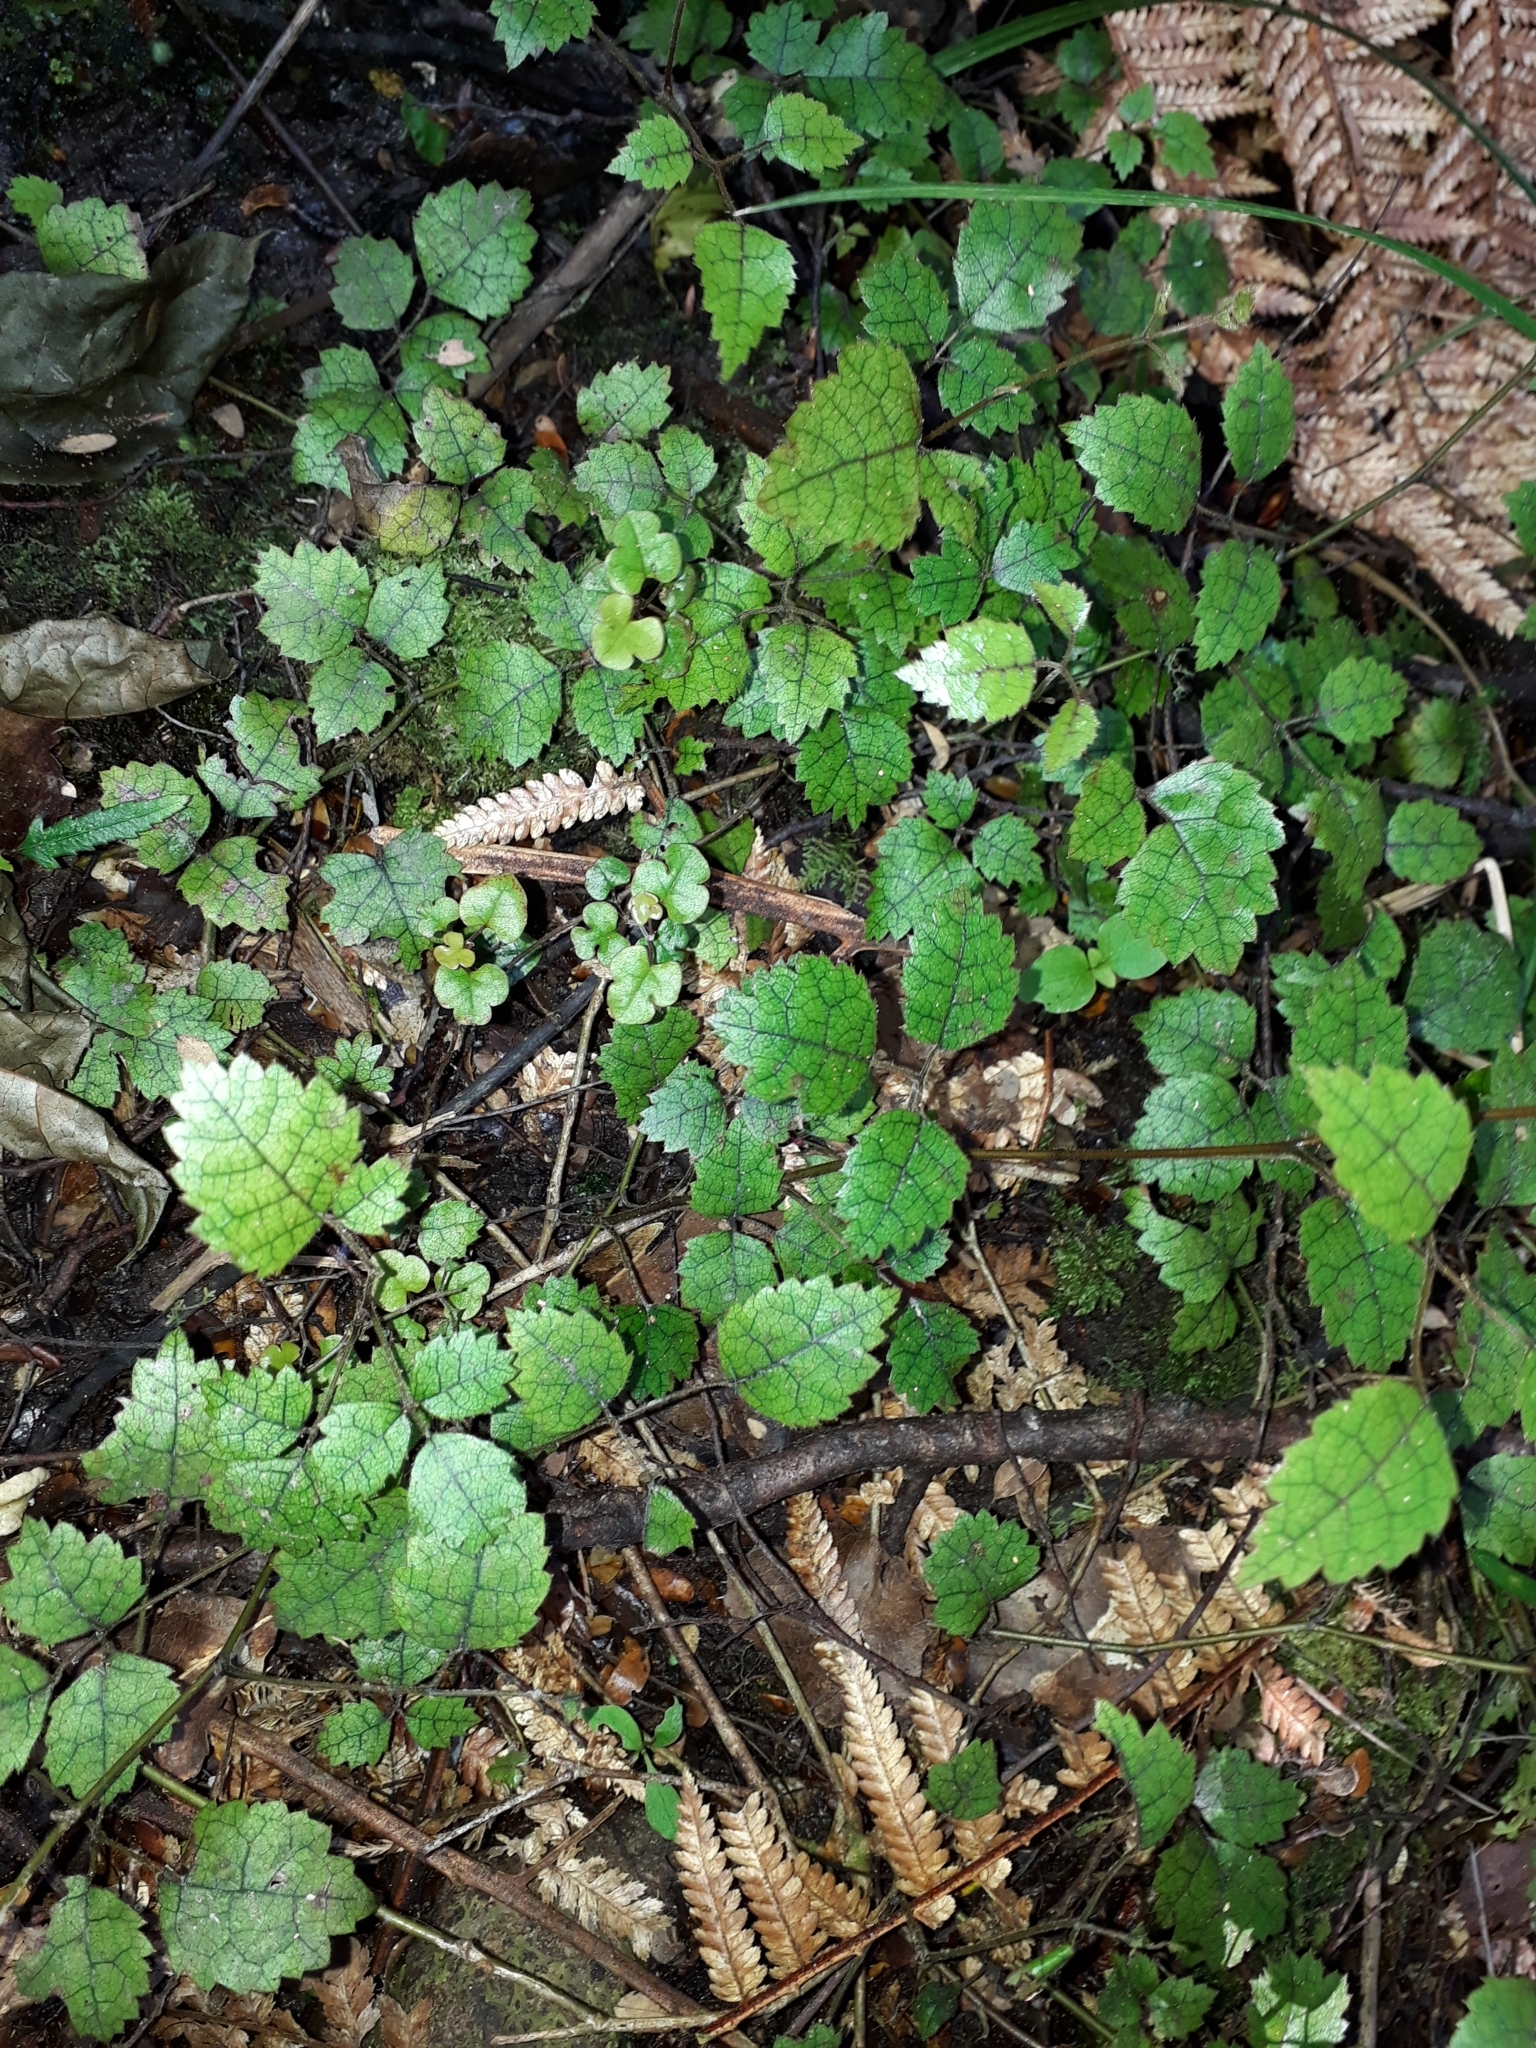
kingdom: Plantae
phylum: Tracheophyta
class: Magnoliopsida
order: Rosales
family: Rosaceae
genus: Rubus
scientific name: Rubus australis
